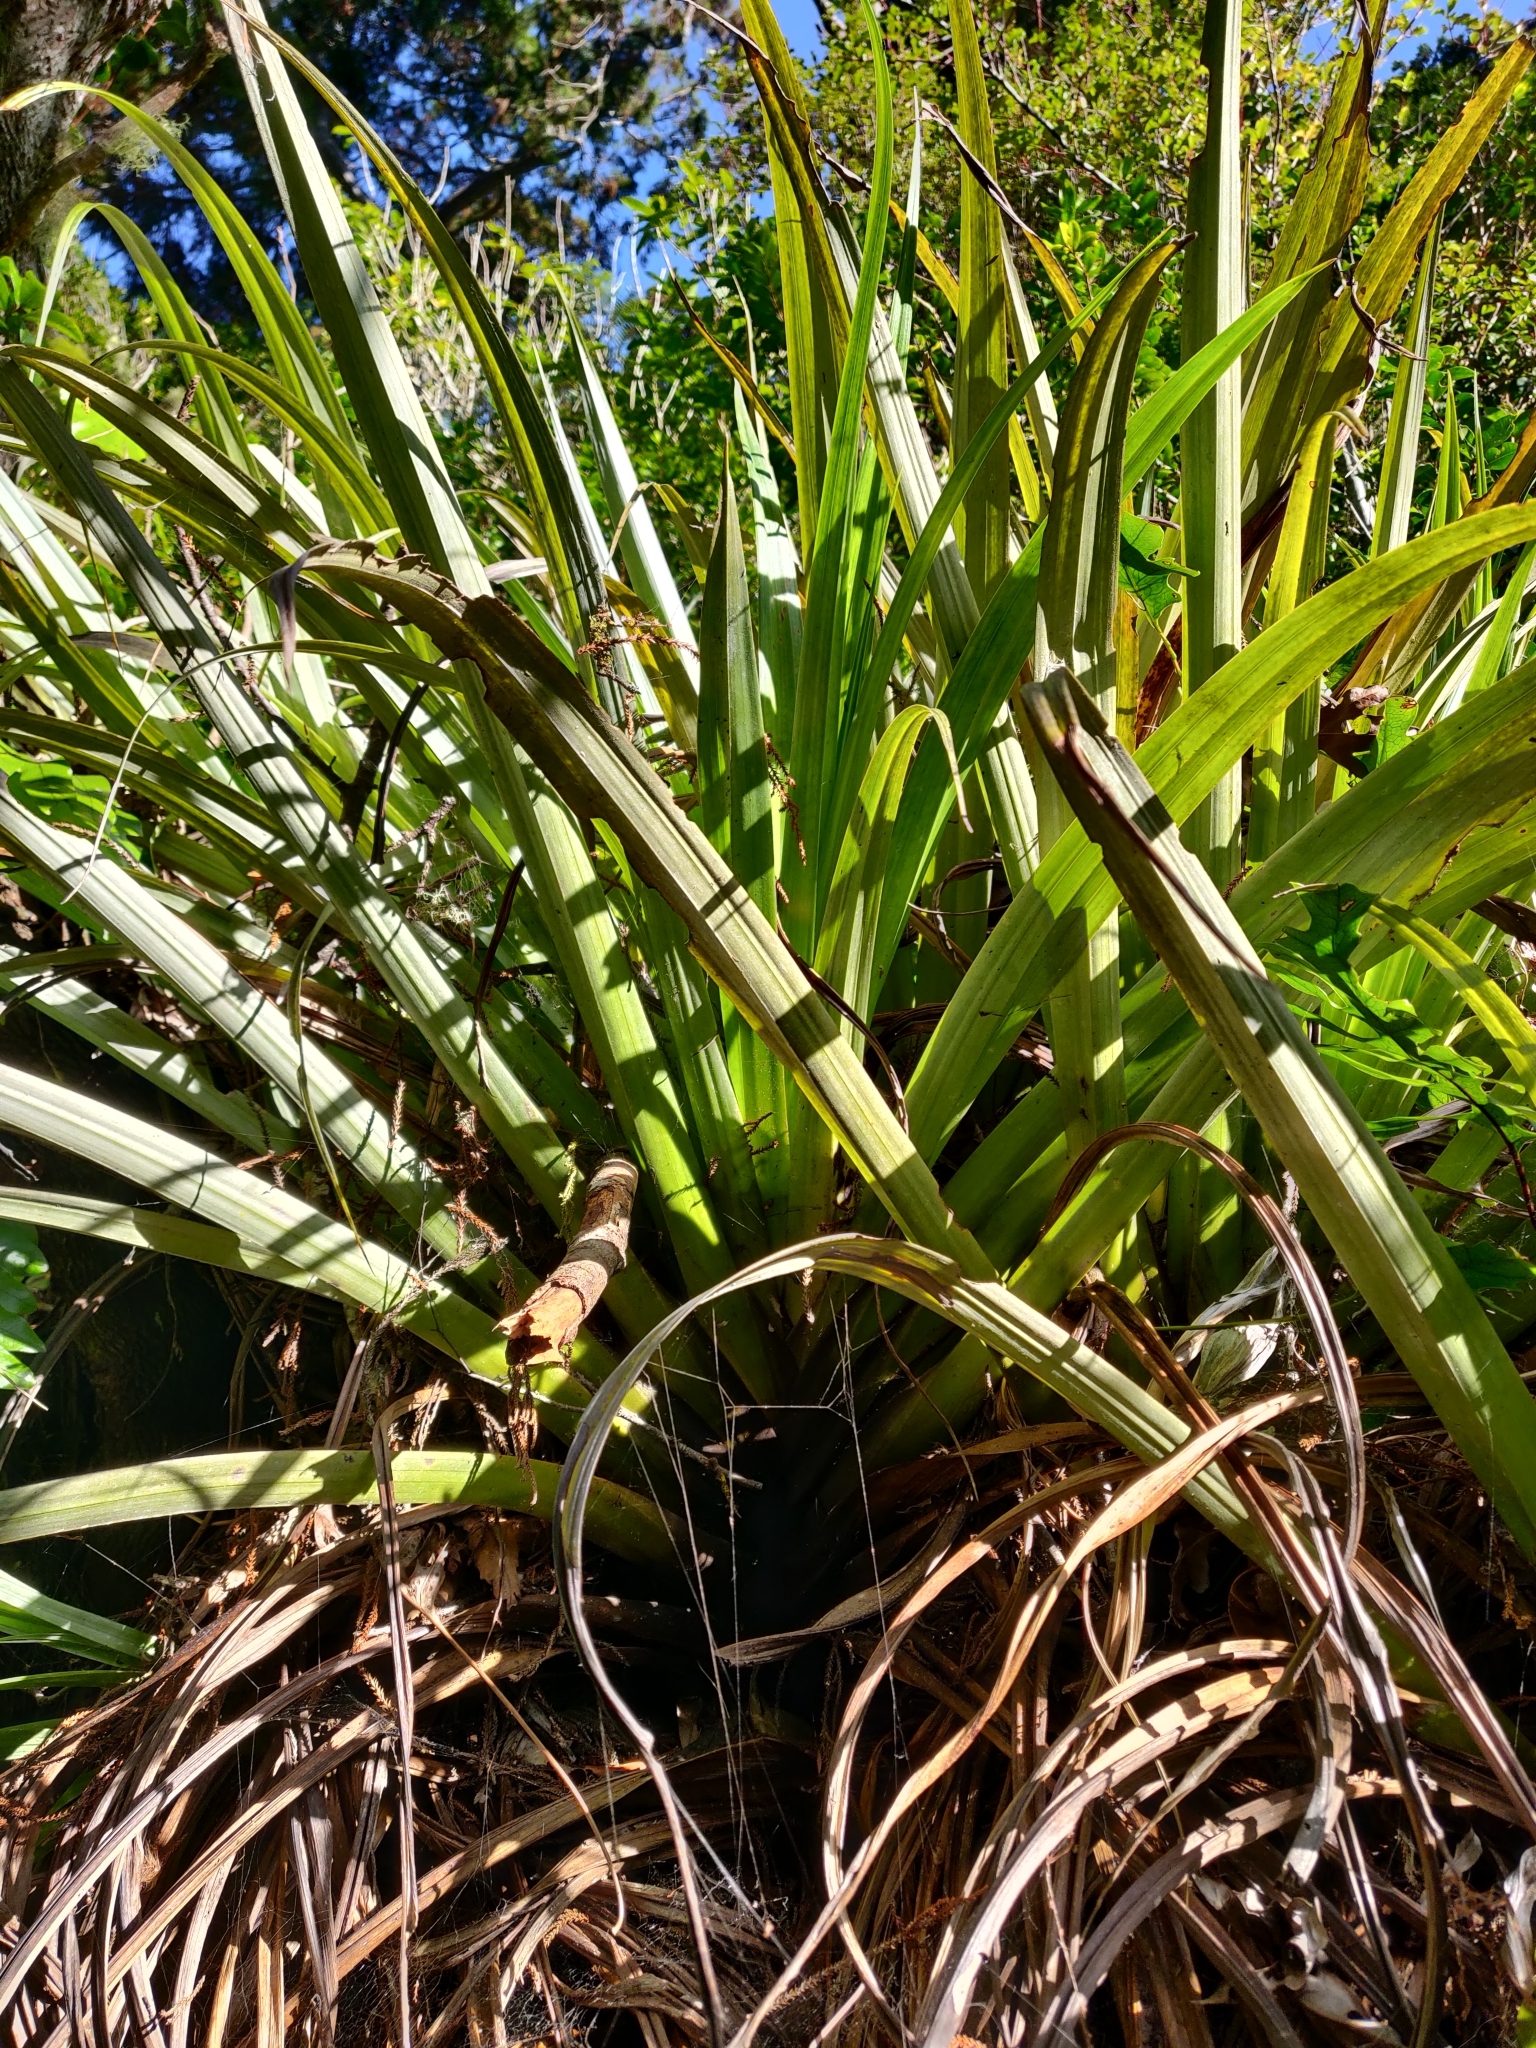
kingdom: Plantae
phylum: Tracheophyta
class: Liliopsida
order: Asparagales
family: Asteliaceae
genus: Astelia
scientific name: Astelia hastata
